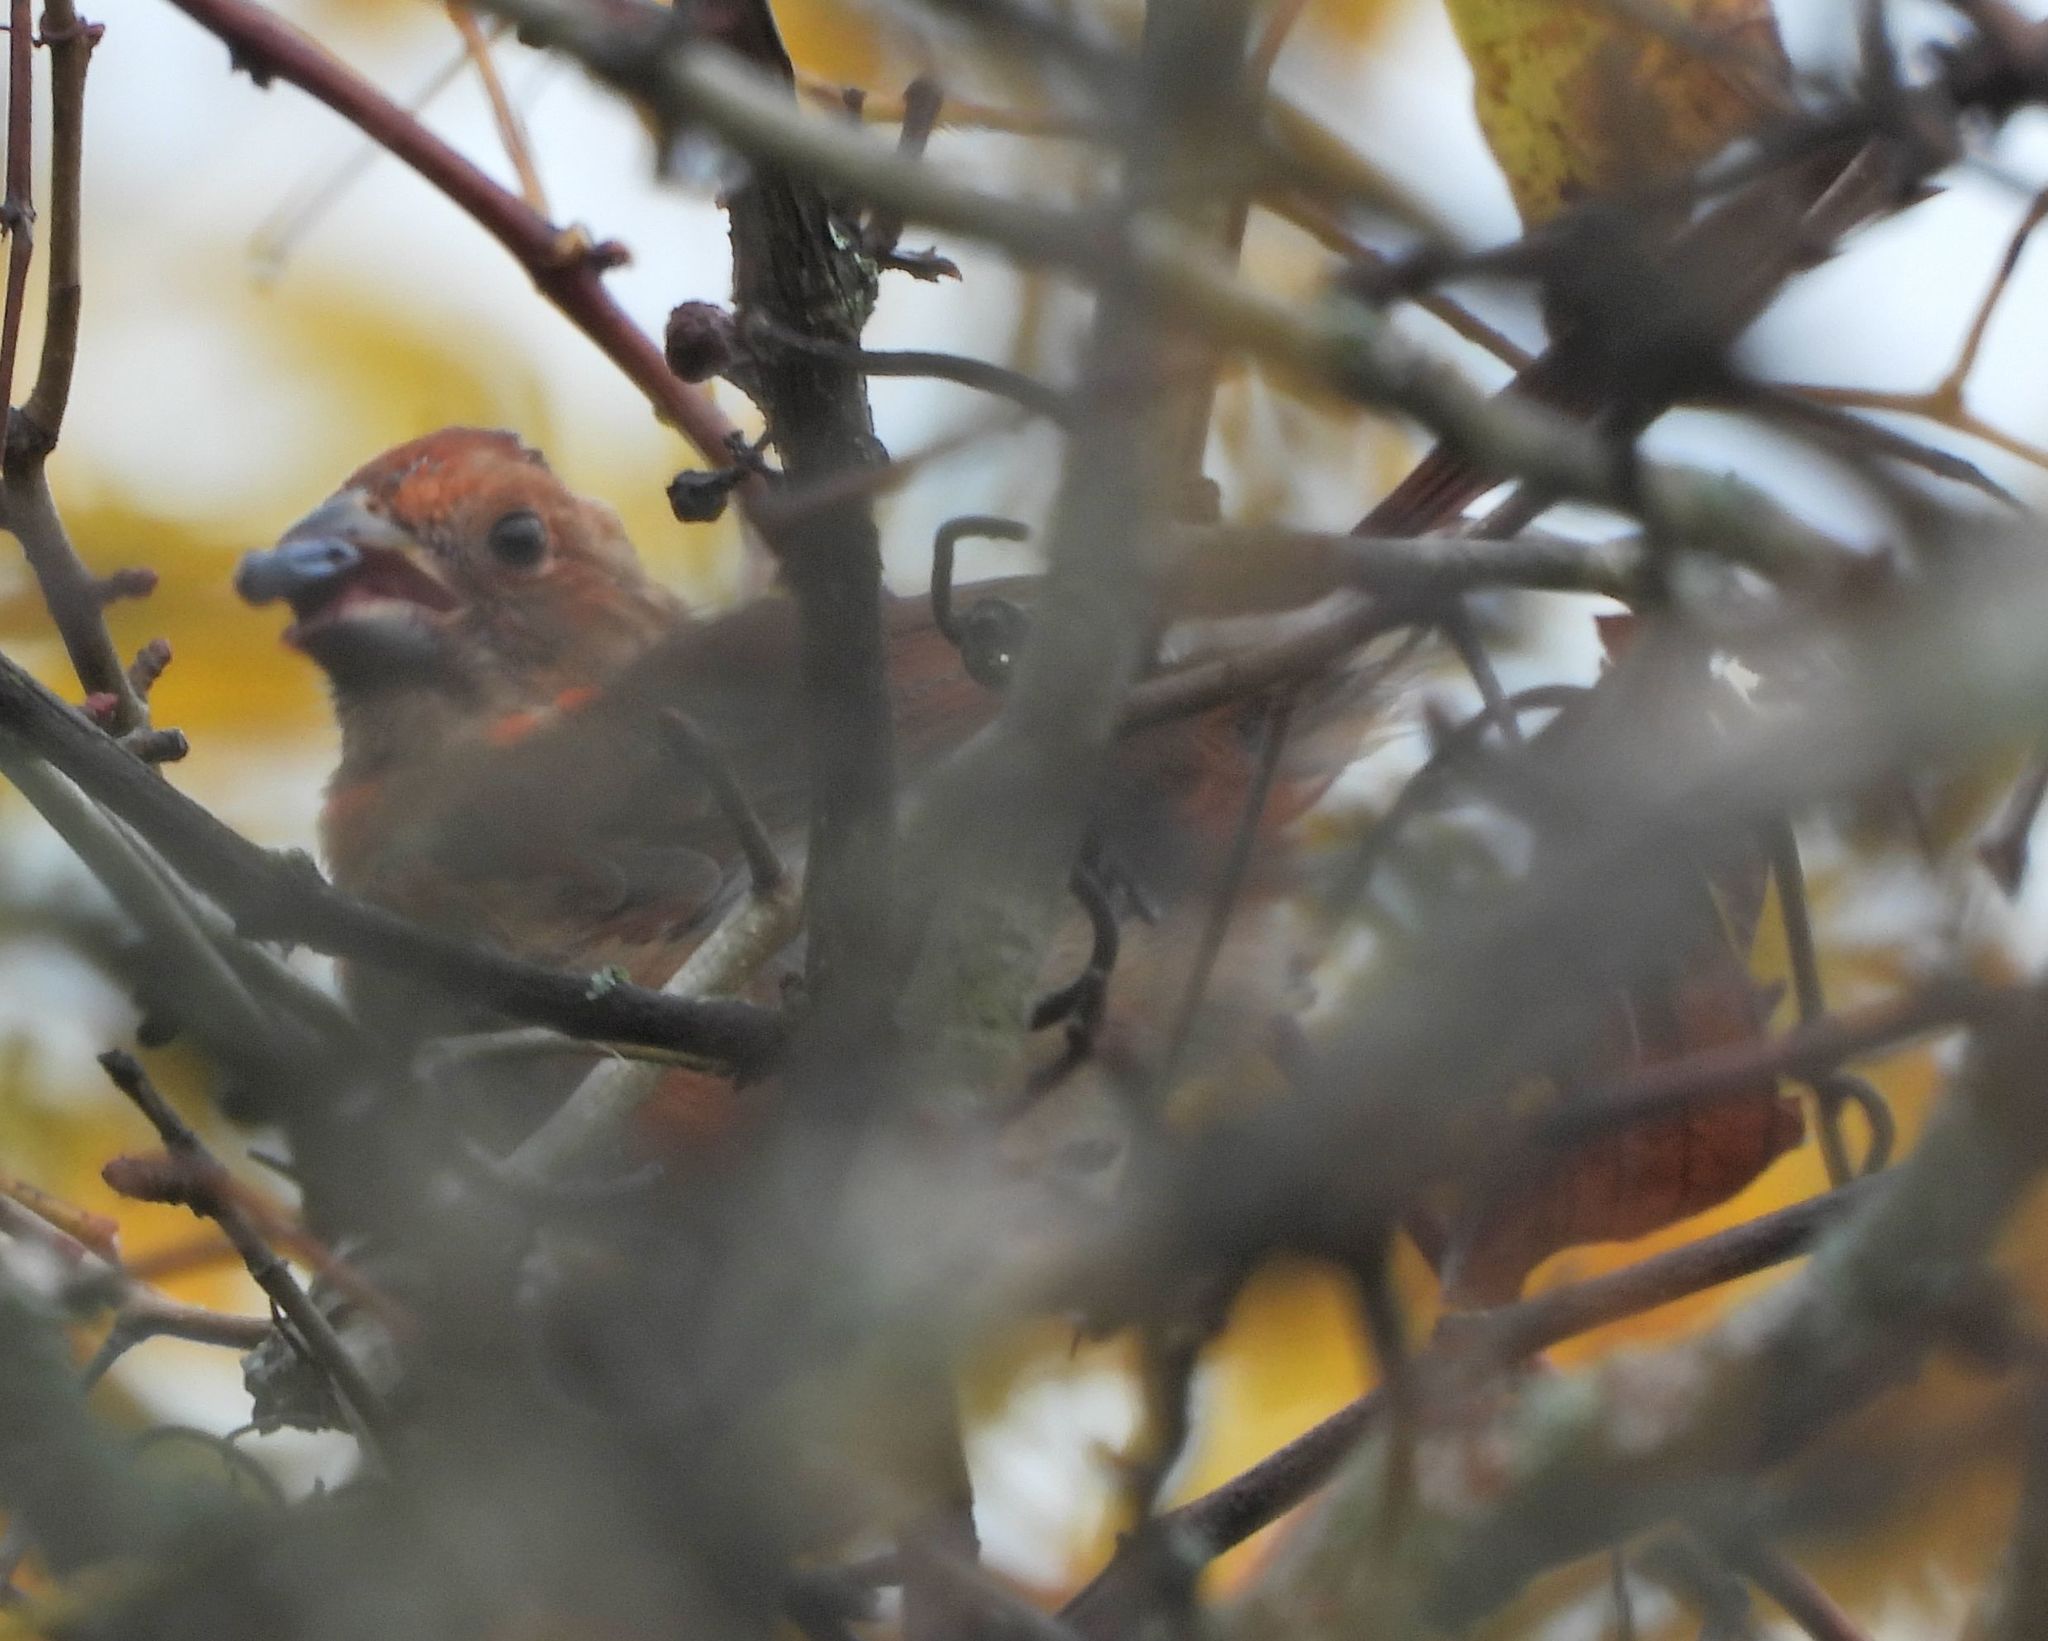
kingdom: Animalia
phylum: Chordata
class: Aves
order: Passeriformes
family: Cardinalidae
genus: Cardinalis
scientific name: Cardinalis cardinalis
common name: Northern cardinal
